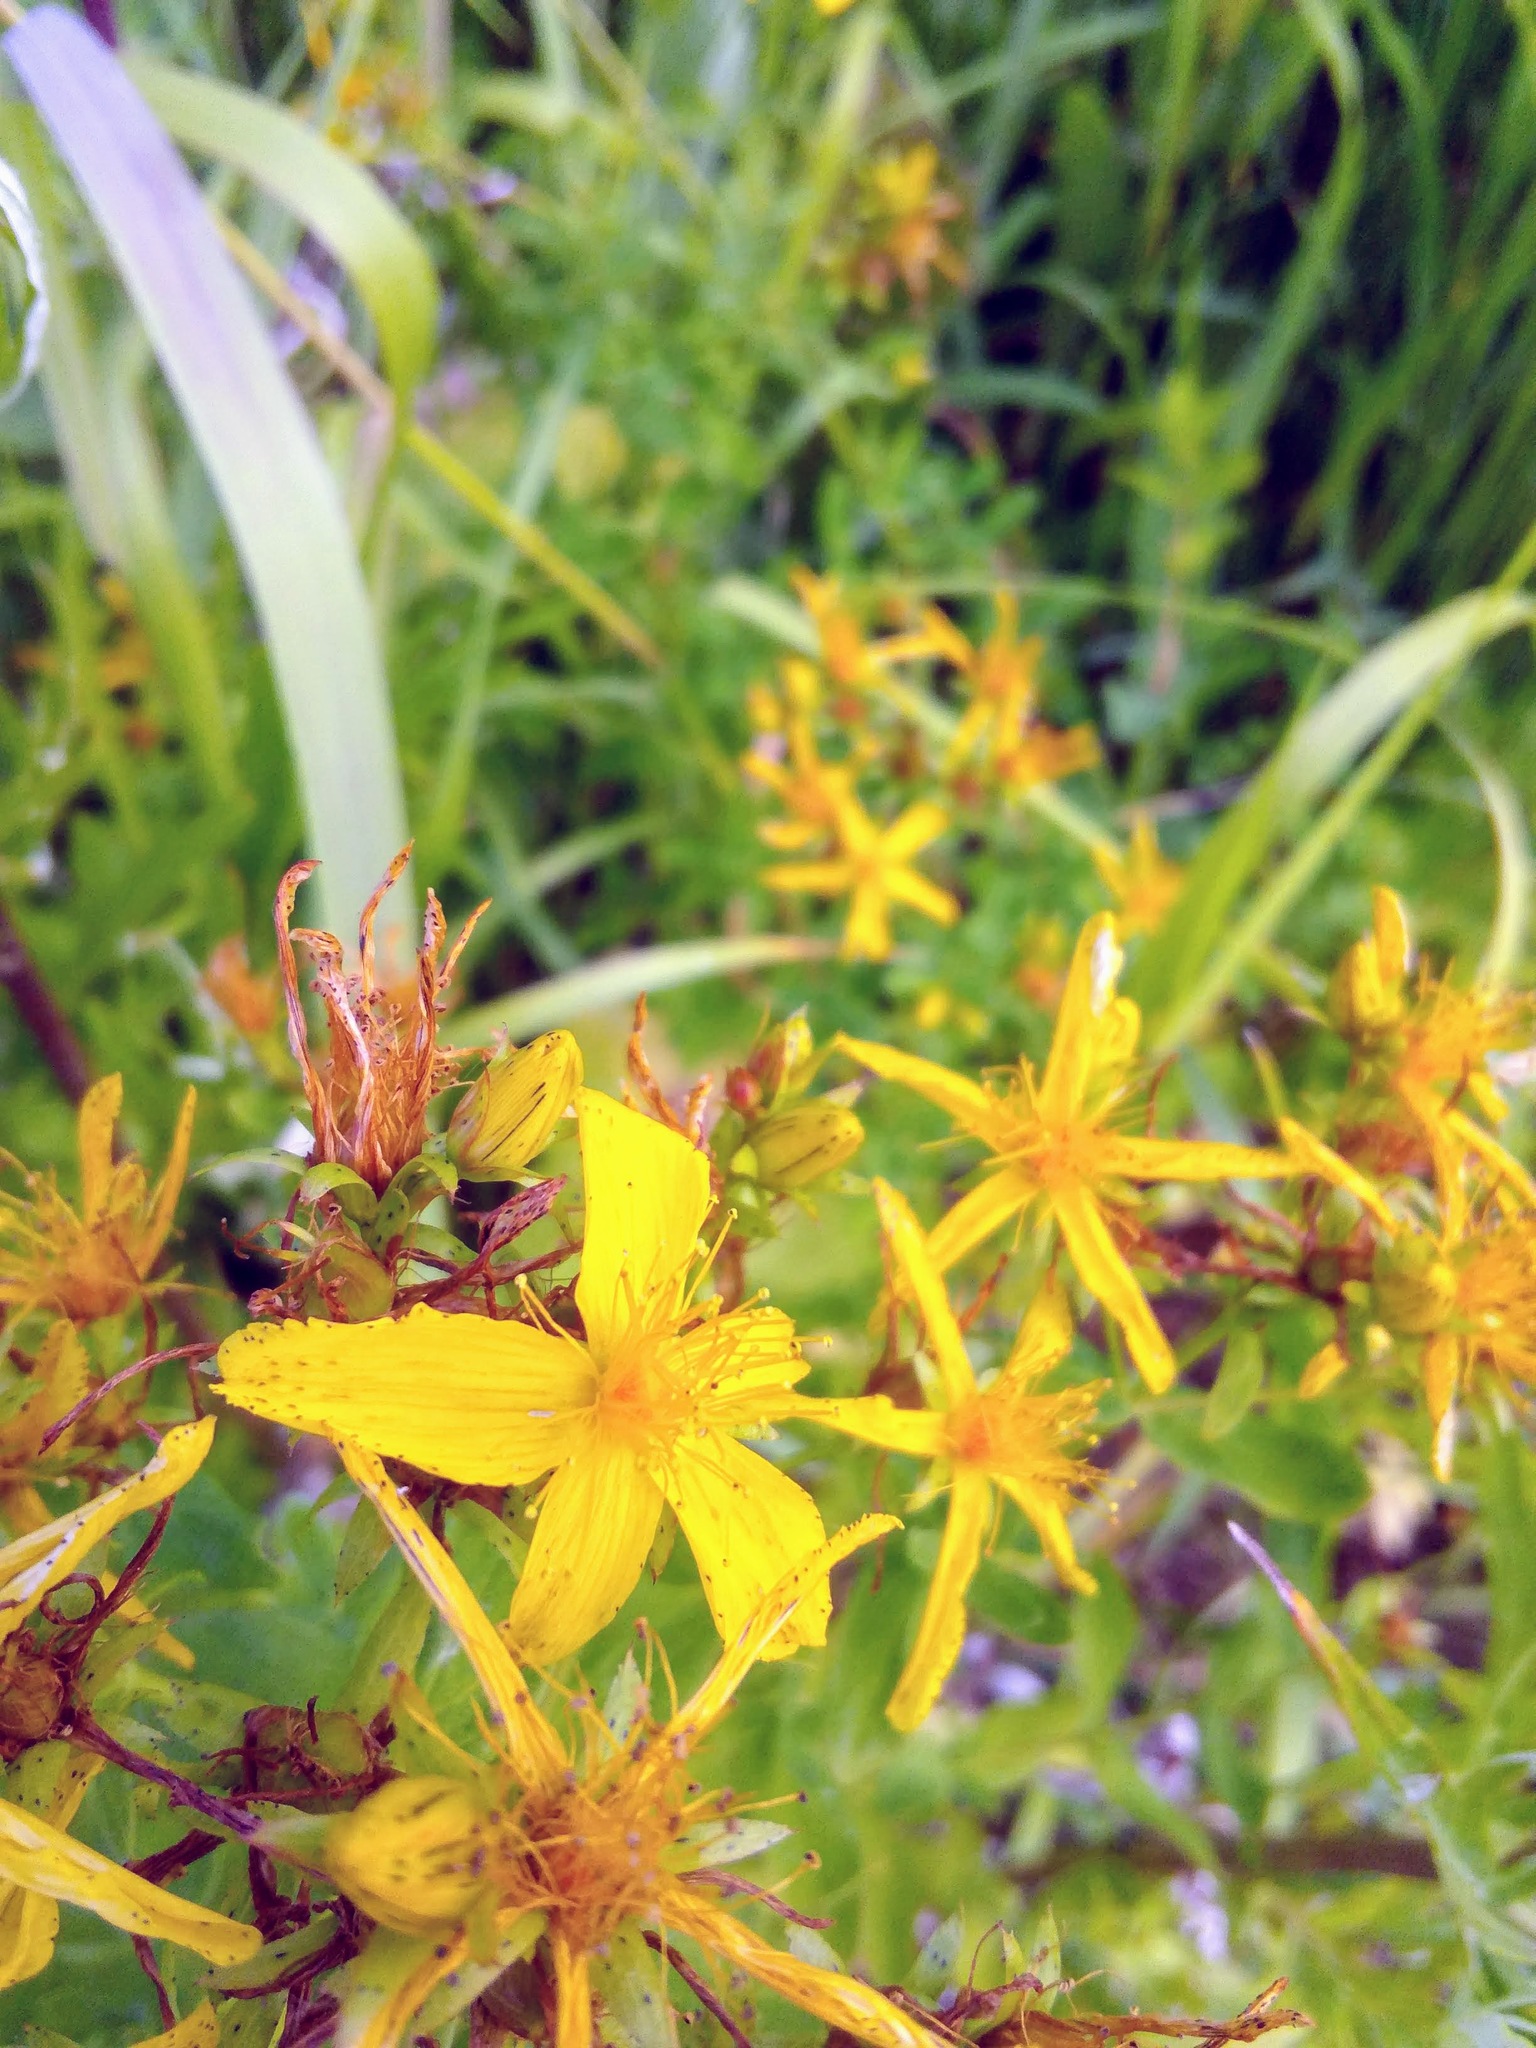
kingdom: Plantae
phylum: Tracheophyta
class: Magnoliopsida
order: Malpighiales
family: Hypericaceae
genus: Hypericum
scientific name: Hypericum perforatum
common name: Common st. johnswort
